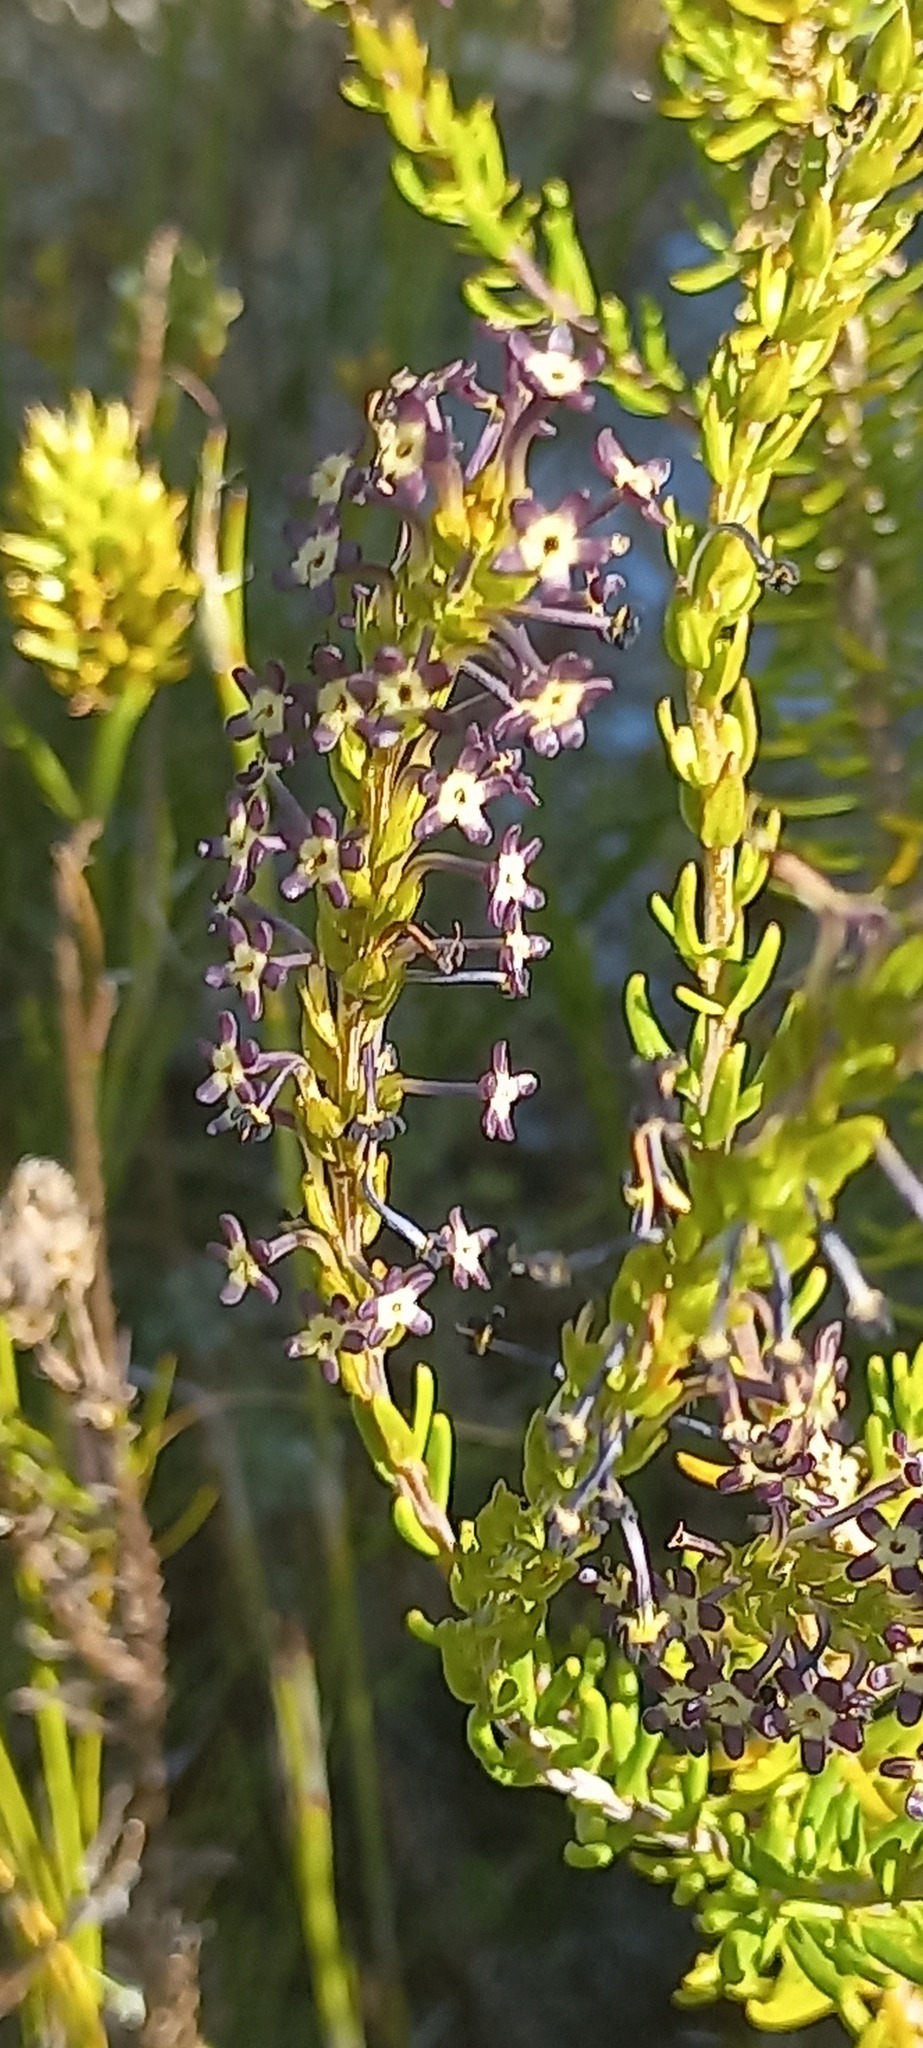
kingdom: Plantae
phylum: Tracheophyta
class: Magnoliopsida
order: Lamiales
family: Scrophulariaceae
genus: Microdon
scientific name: Microdon dubius
